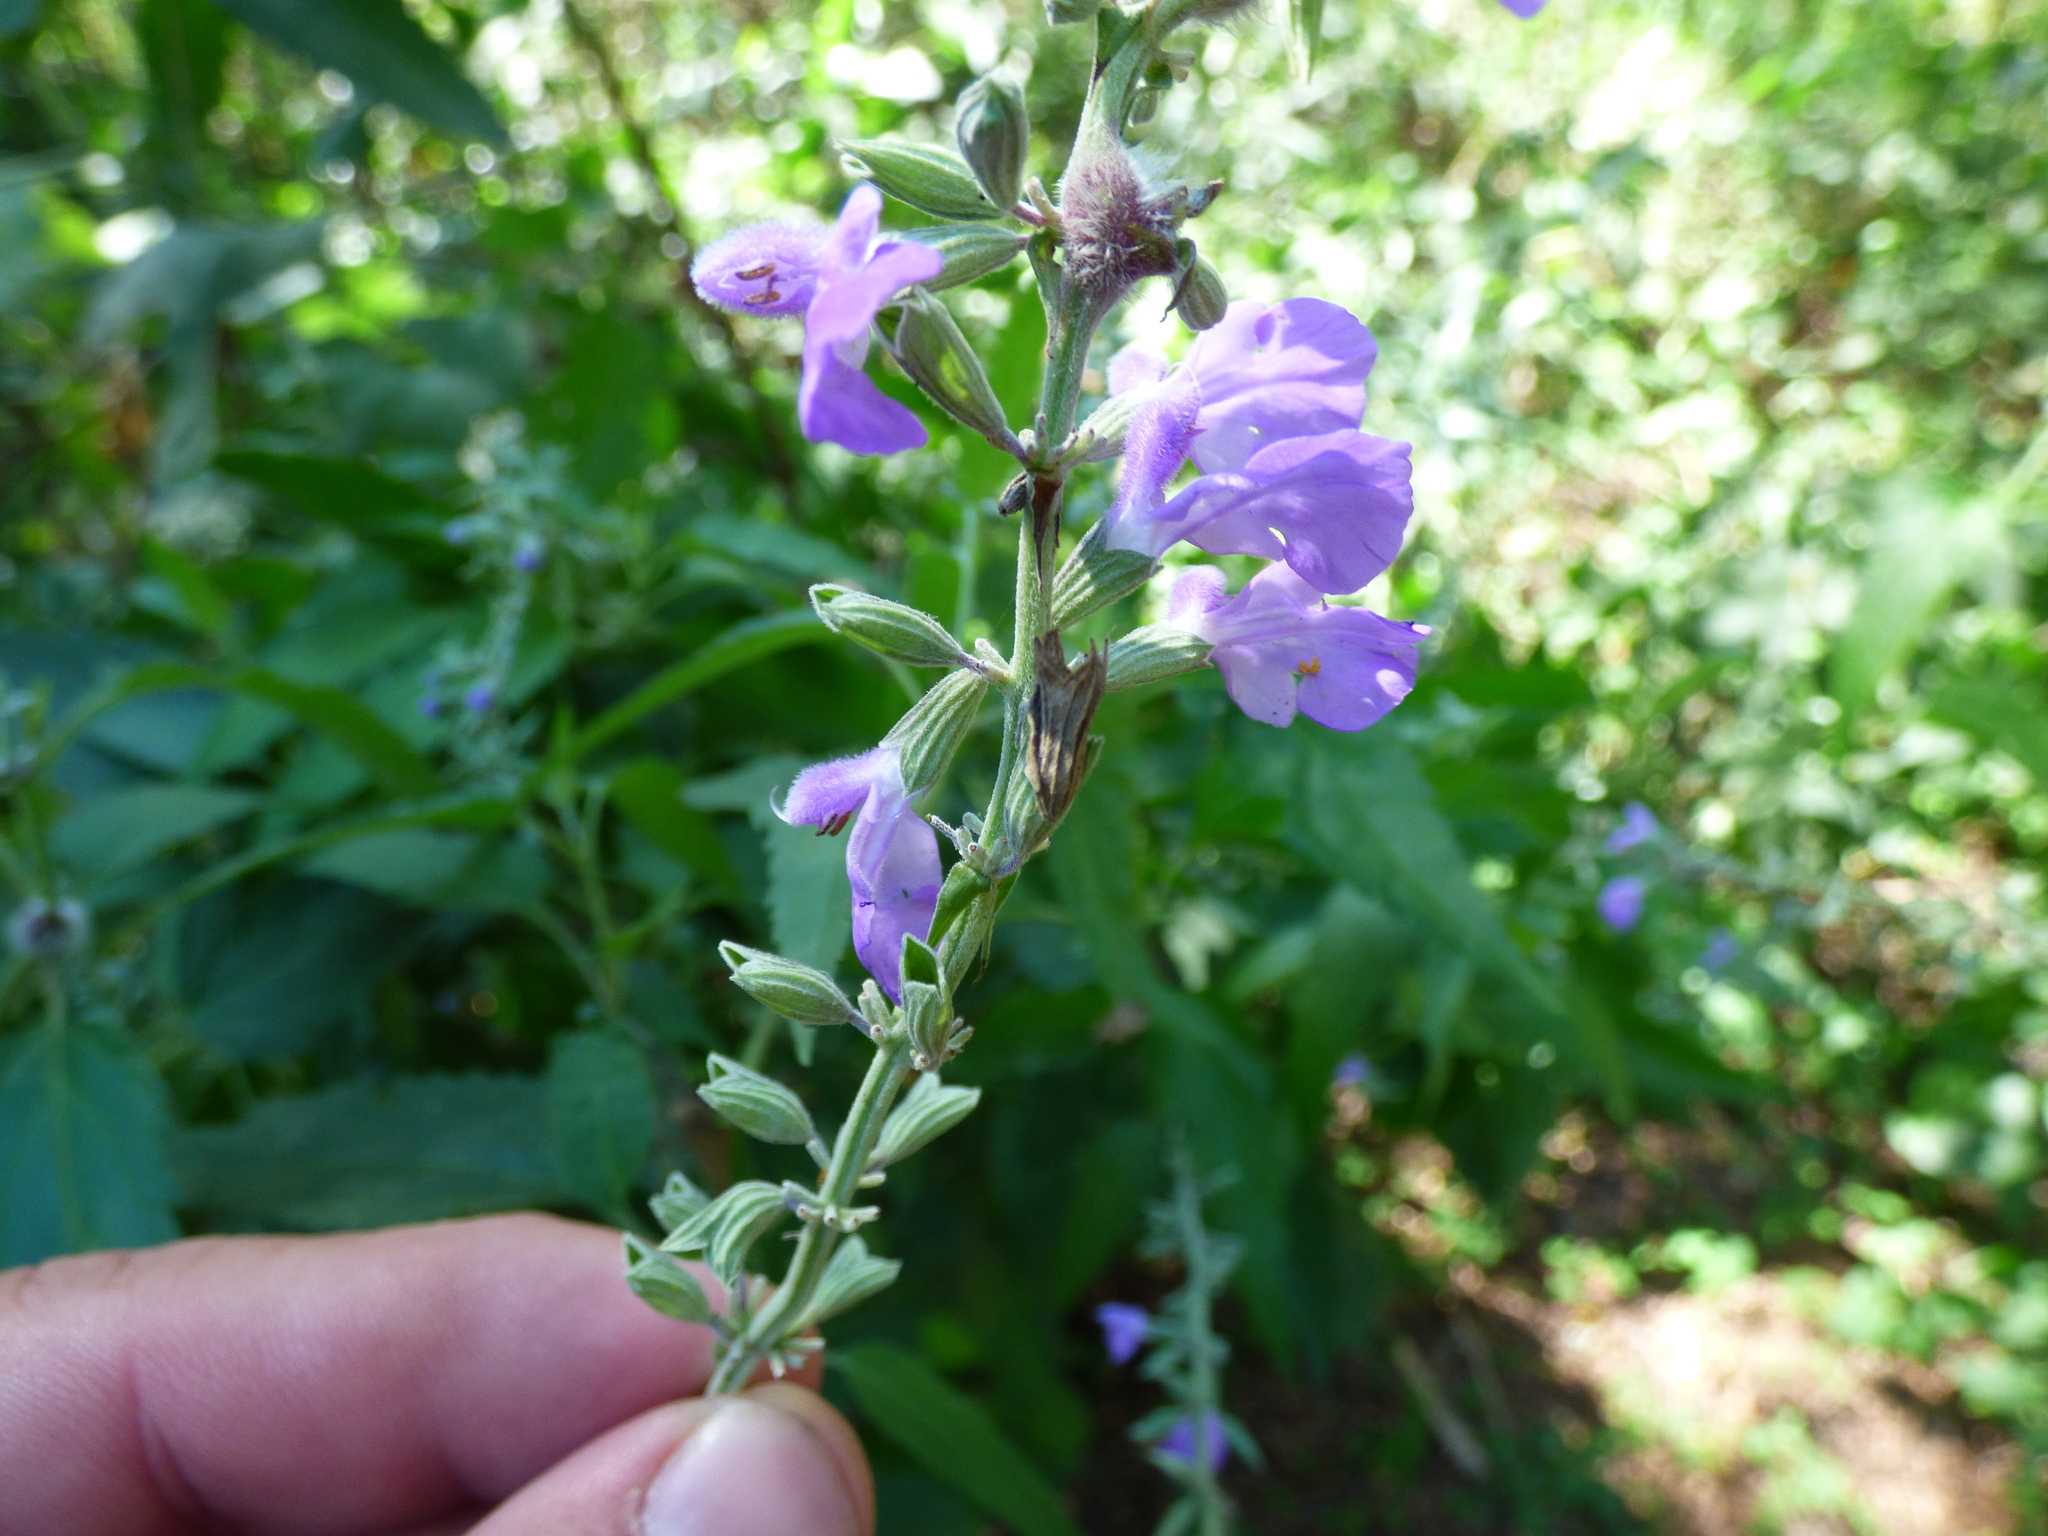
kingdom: Plantae
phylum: Tracheophyta
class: Magnoliopsida
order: Lamiales
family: Lamiaceae
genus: Salvia
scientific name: Salvia pallida
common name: Pale sage
